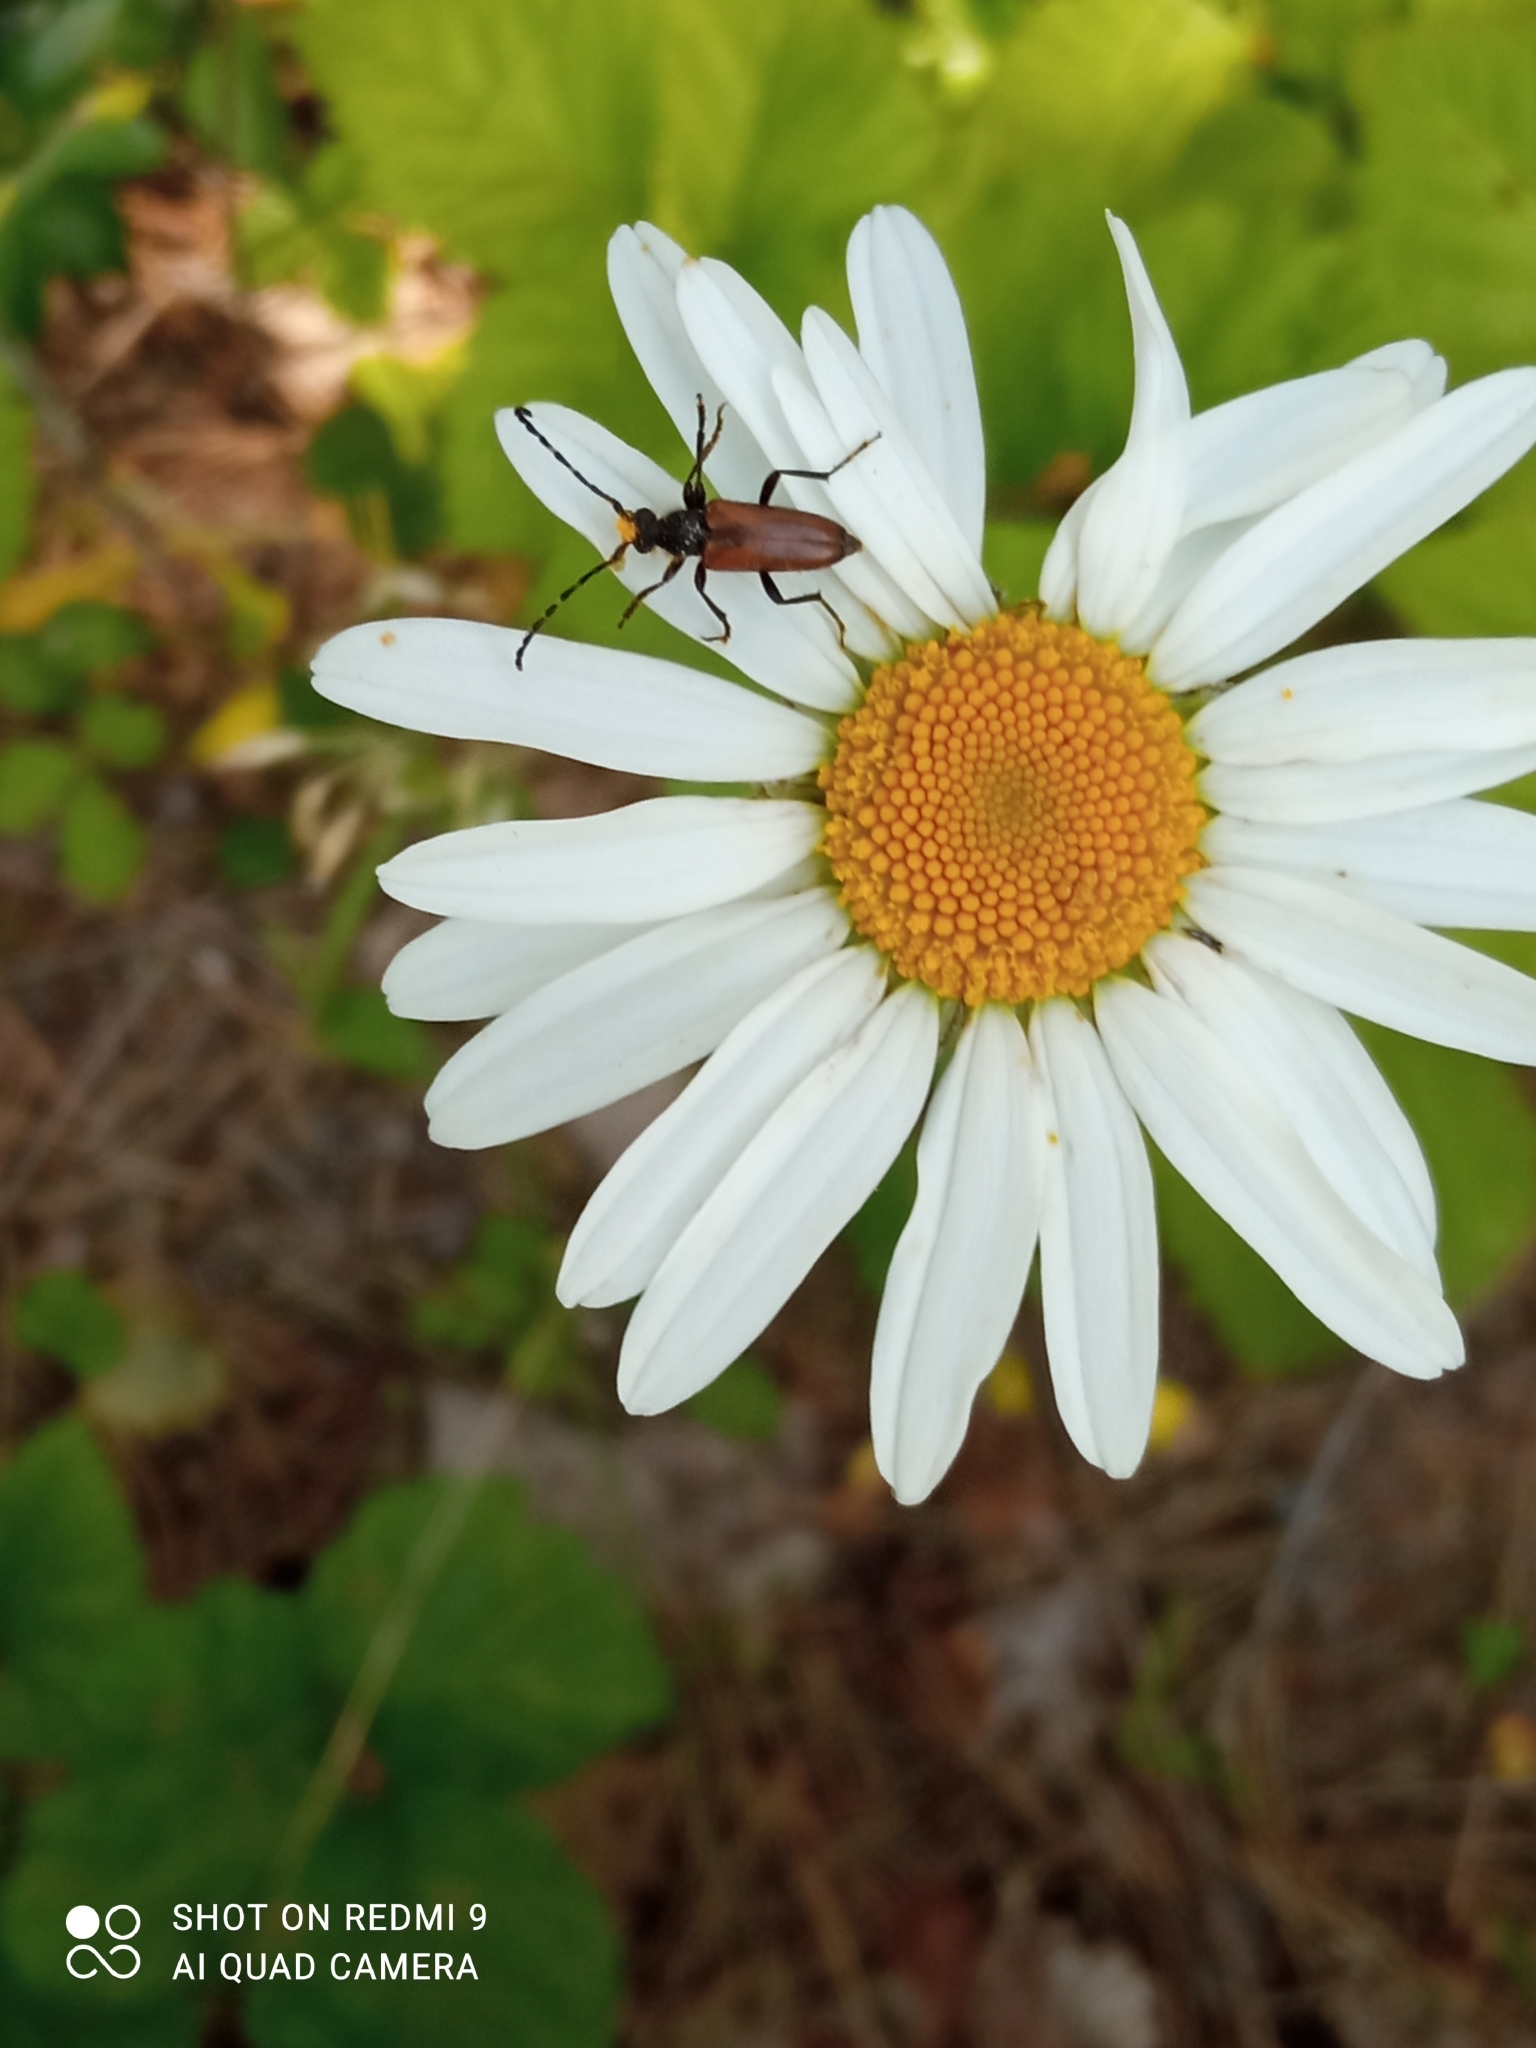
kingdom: Animalia
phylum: Arthropoda
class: Insecta
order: Coleoptera
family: Cerambycidae
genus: Paracorymbia
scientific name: Paracorymbia maculicornis
